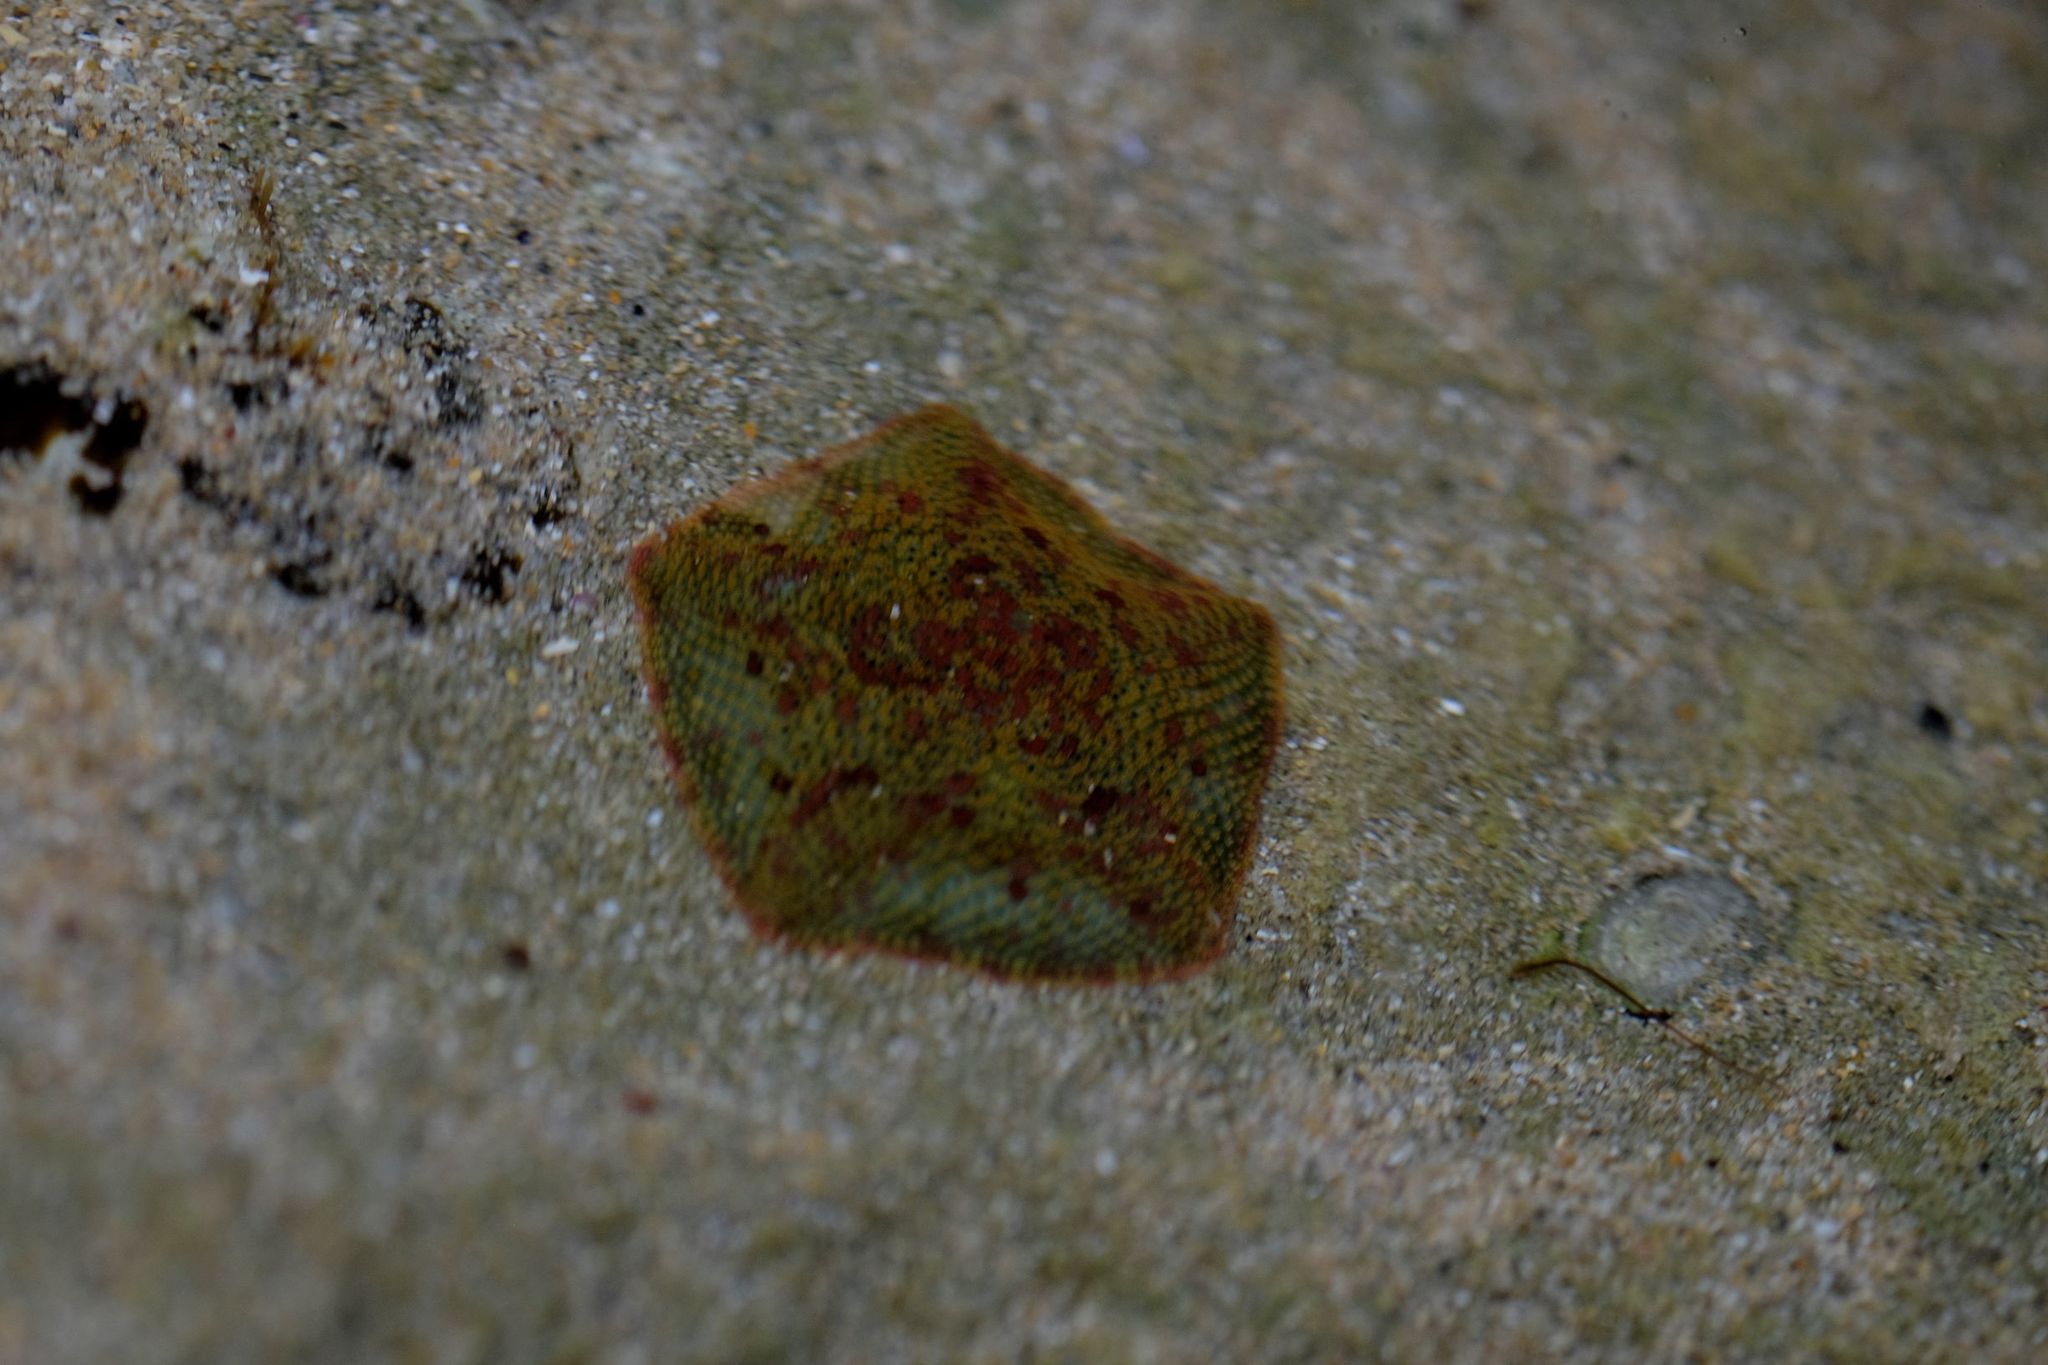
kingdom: Animalia
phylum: Echinodermata
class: Asteroidea
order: Valvatida
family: Asterinidae
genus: Parvulastra
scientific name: Parvulastra exigua
